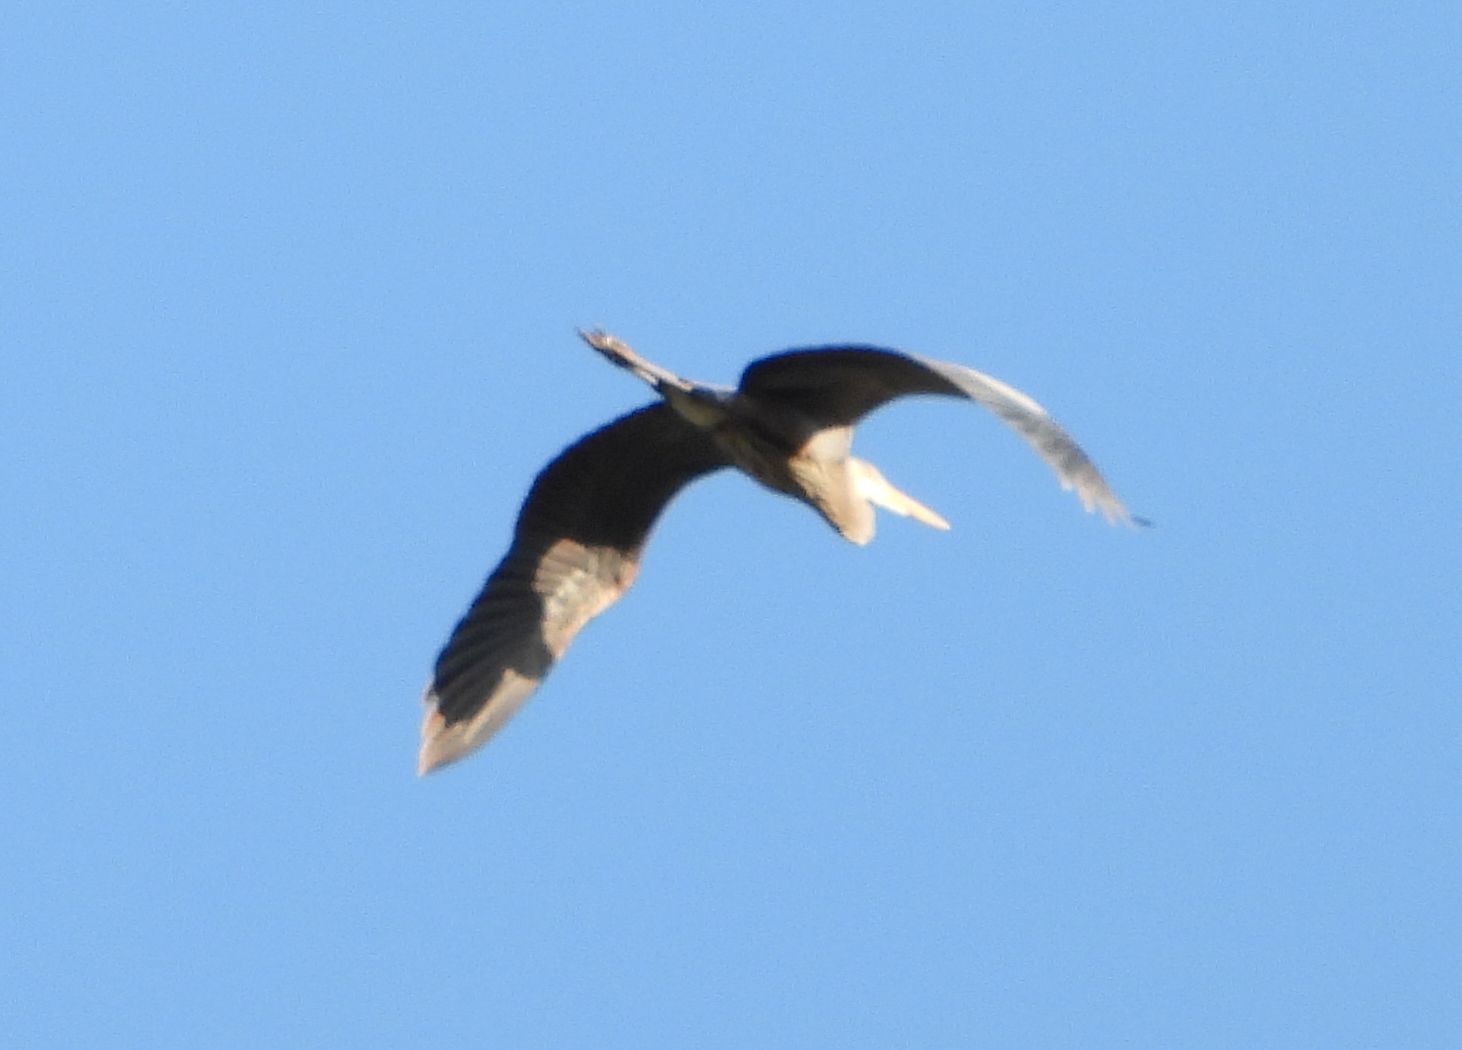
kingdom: Animalia
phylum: Chordata
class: Aves
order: Pelecaniformes
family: Ardeidae
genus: Ardea
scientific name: Ardea herodias
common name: Great blue heron
